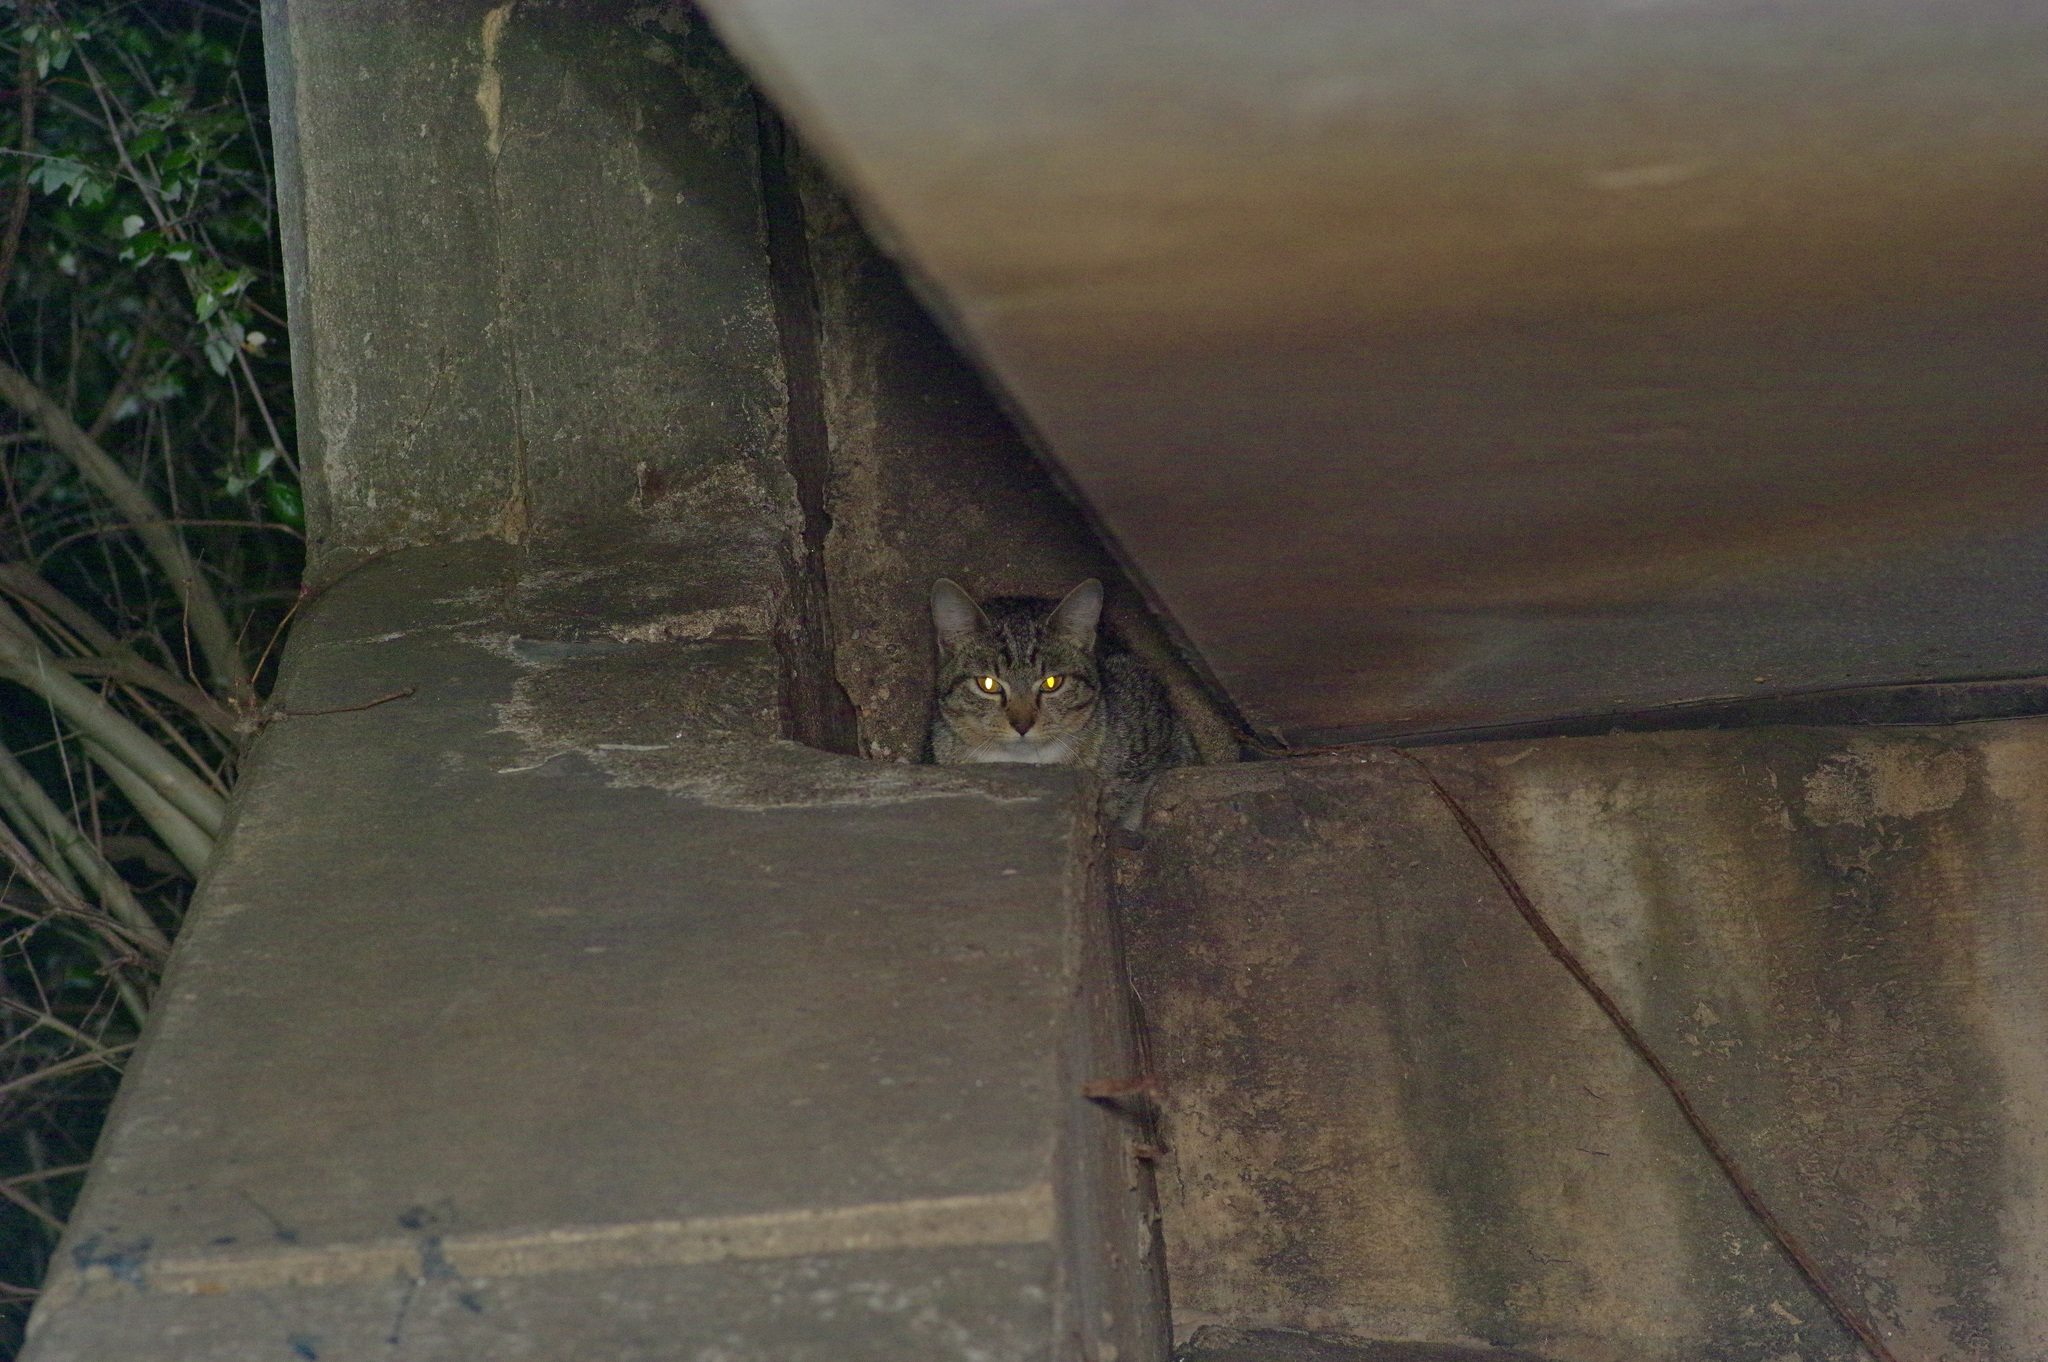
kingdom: Animalia
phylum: Chordata
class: Mammalia
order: Carnivora
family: Felidae
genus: Felis
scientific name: Felis catus
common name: Domestic cat
